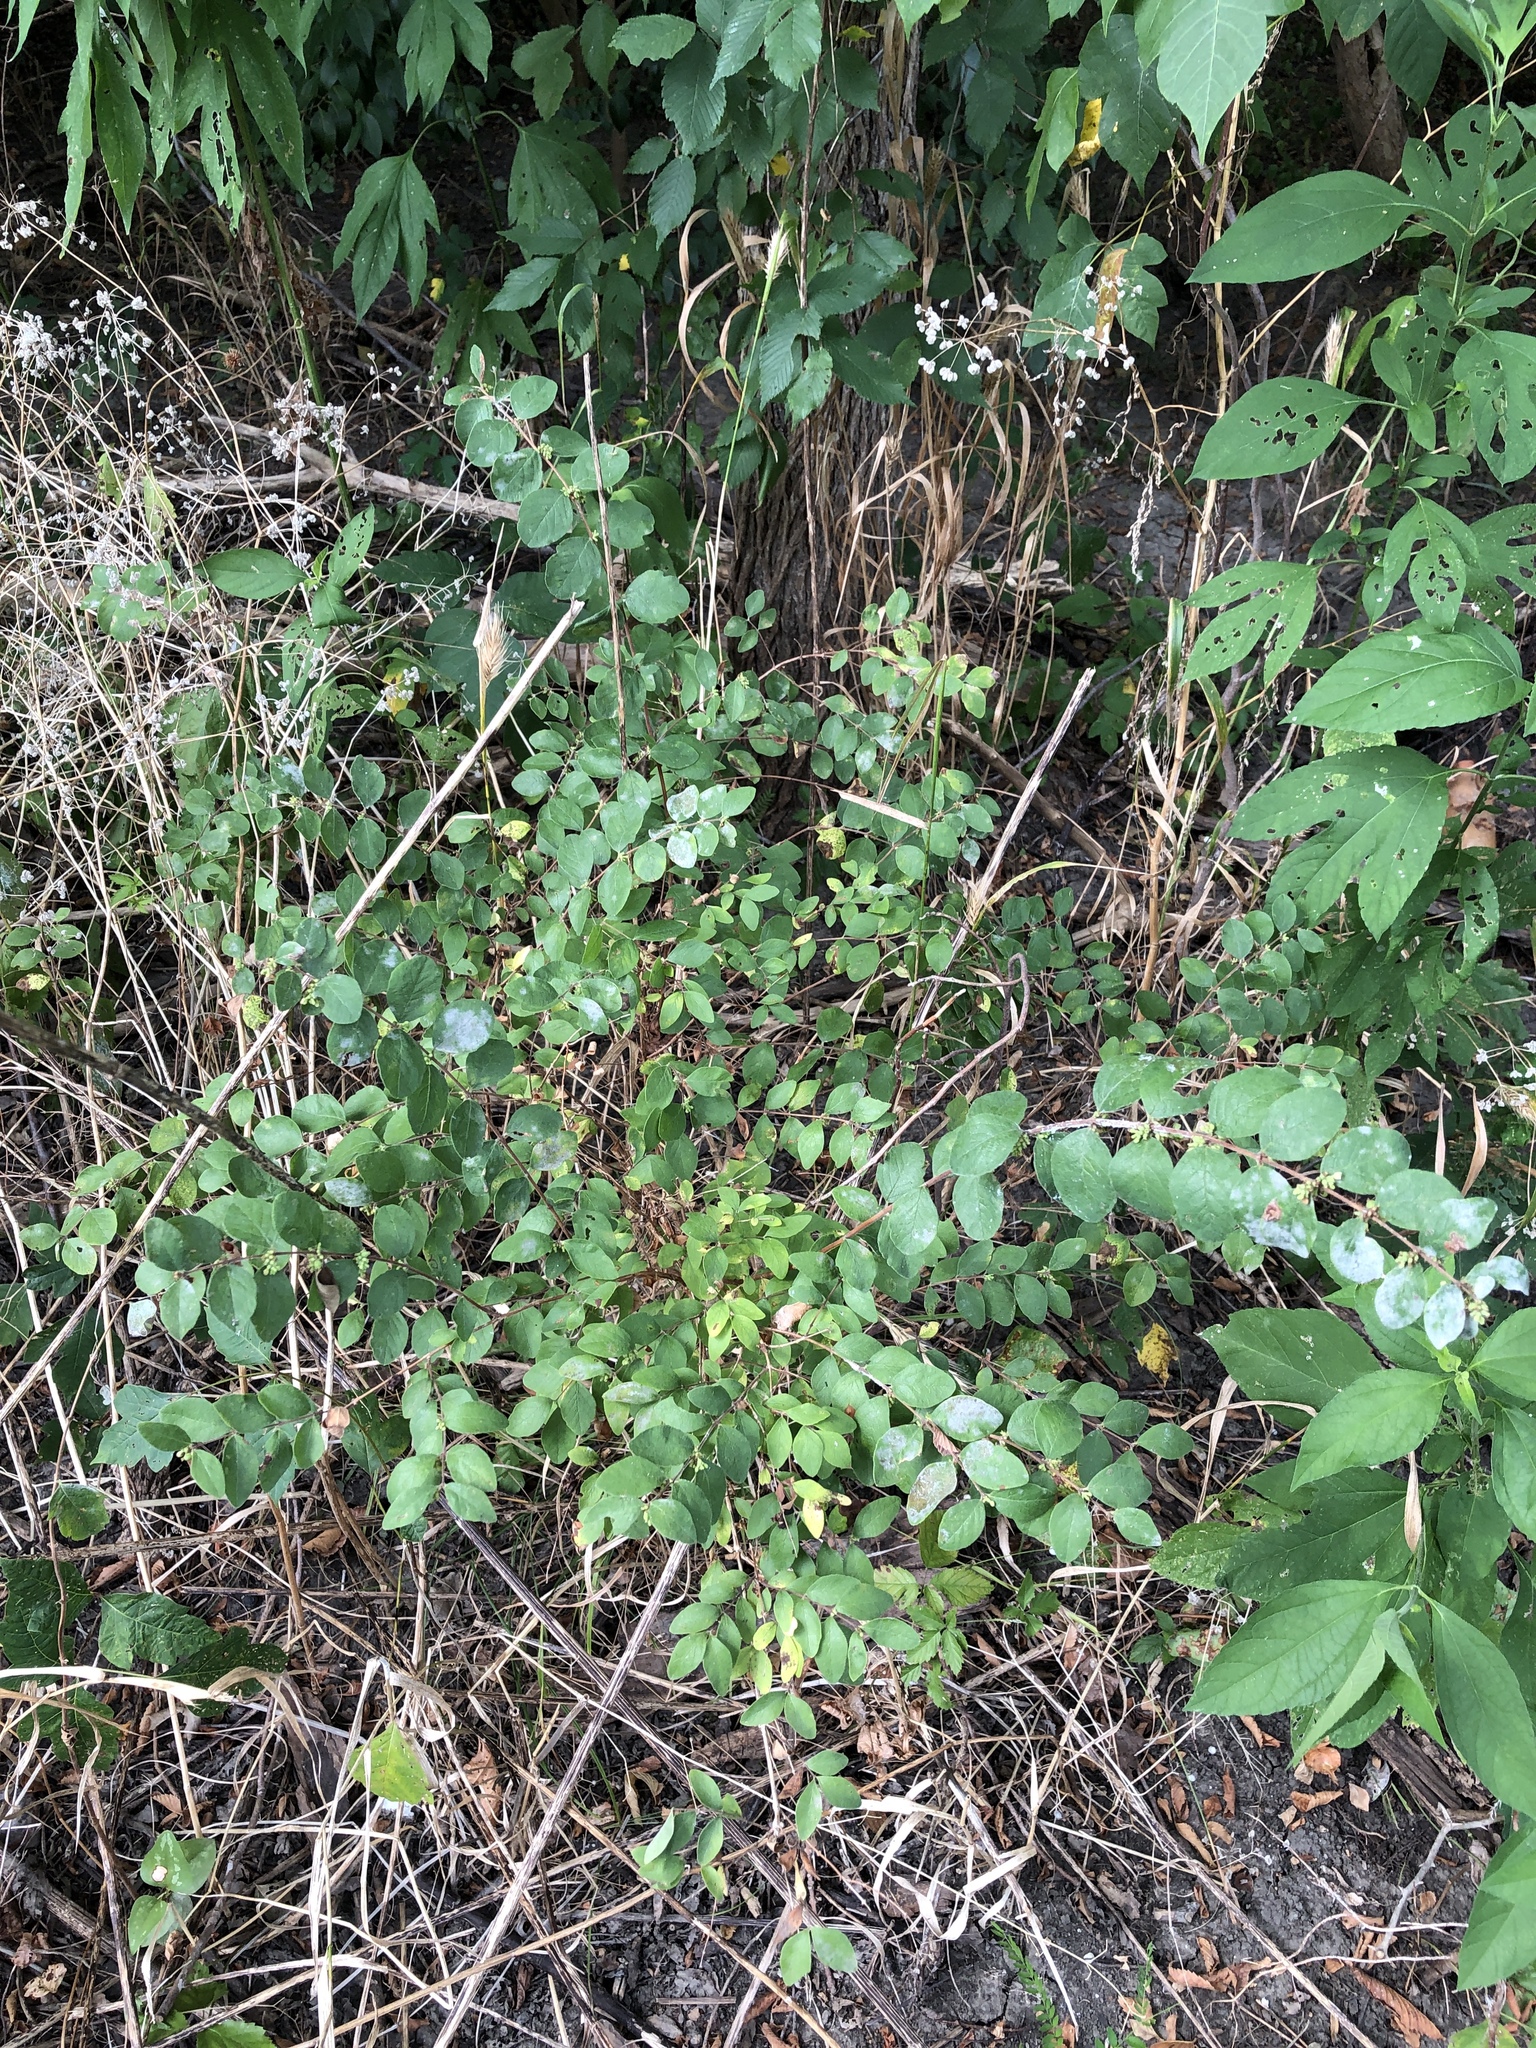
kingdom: Plantae
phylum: Tracheophyta
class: Magnoliopsida
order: Dipsacales
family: Caprifoliaceae
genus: Symphoricarpos
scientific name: Symphoricarpos orbiculatus
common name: Coralberry
